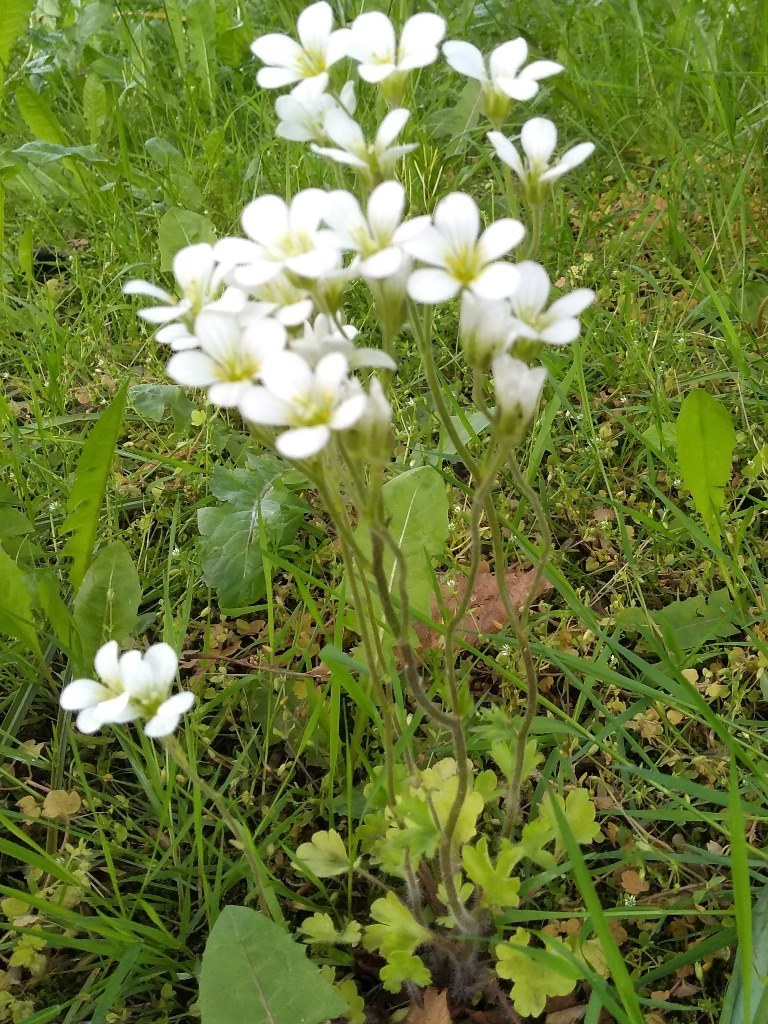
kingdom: Plantae
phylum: Tracheophyta
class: Magnoliopsida
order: Saxifragales
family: Saxifragaceae
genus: Saxifraga
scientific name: Saxifraga granulata
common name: Meadow saxifrage
